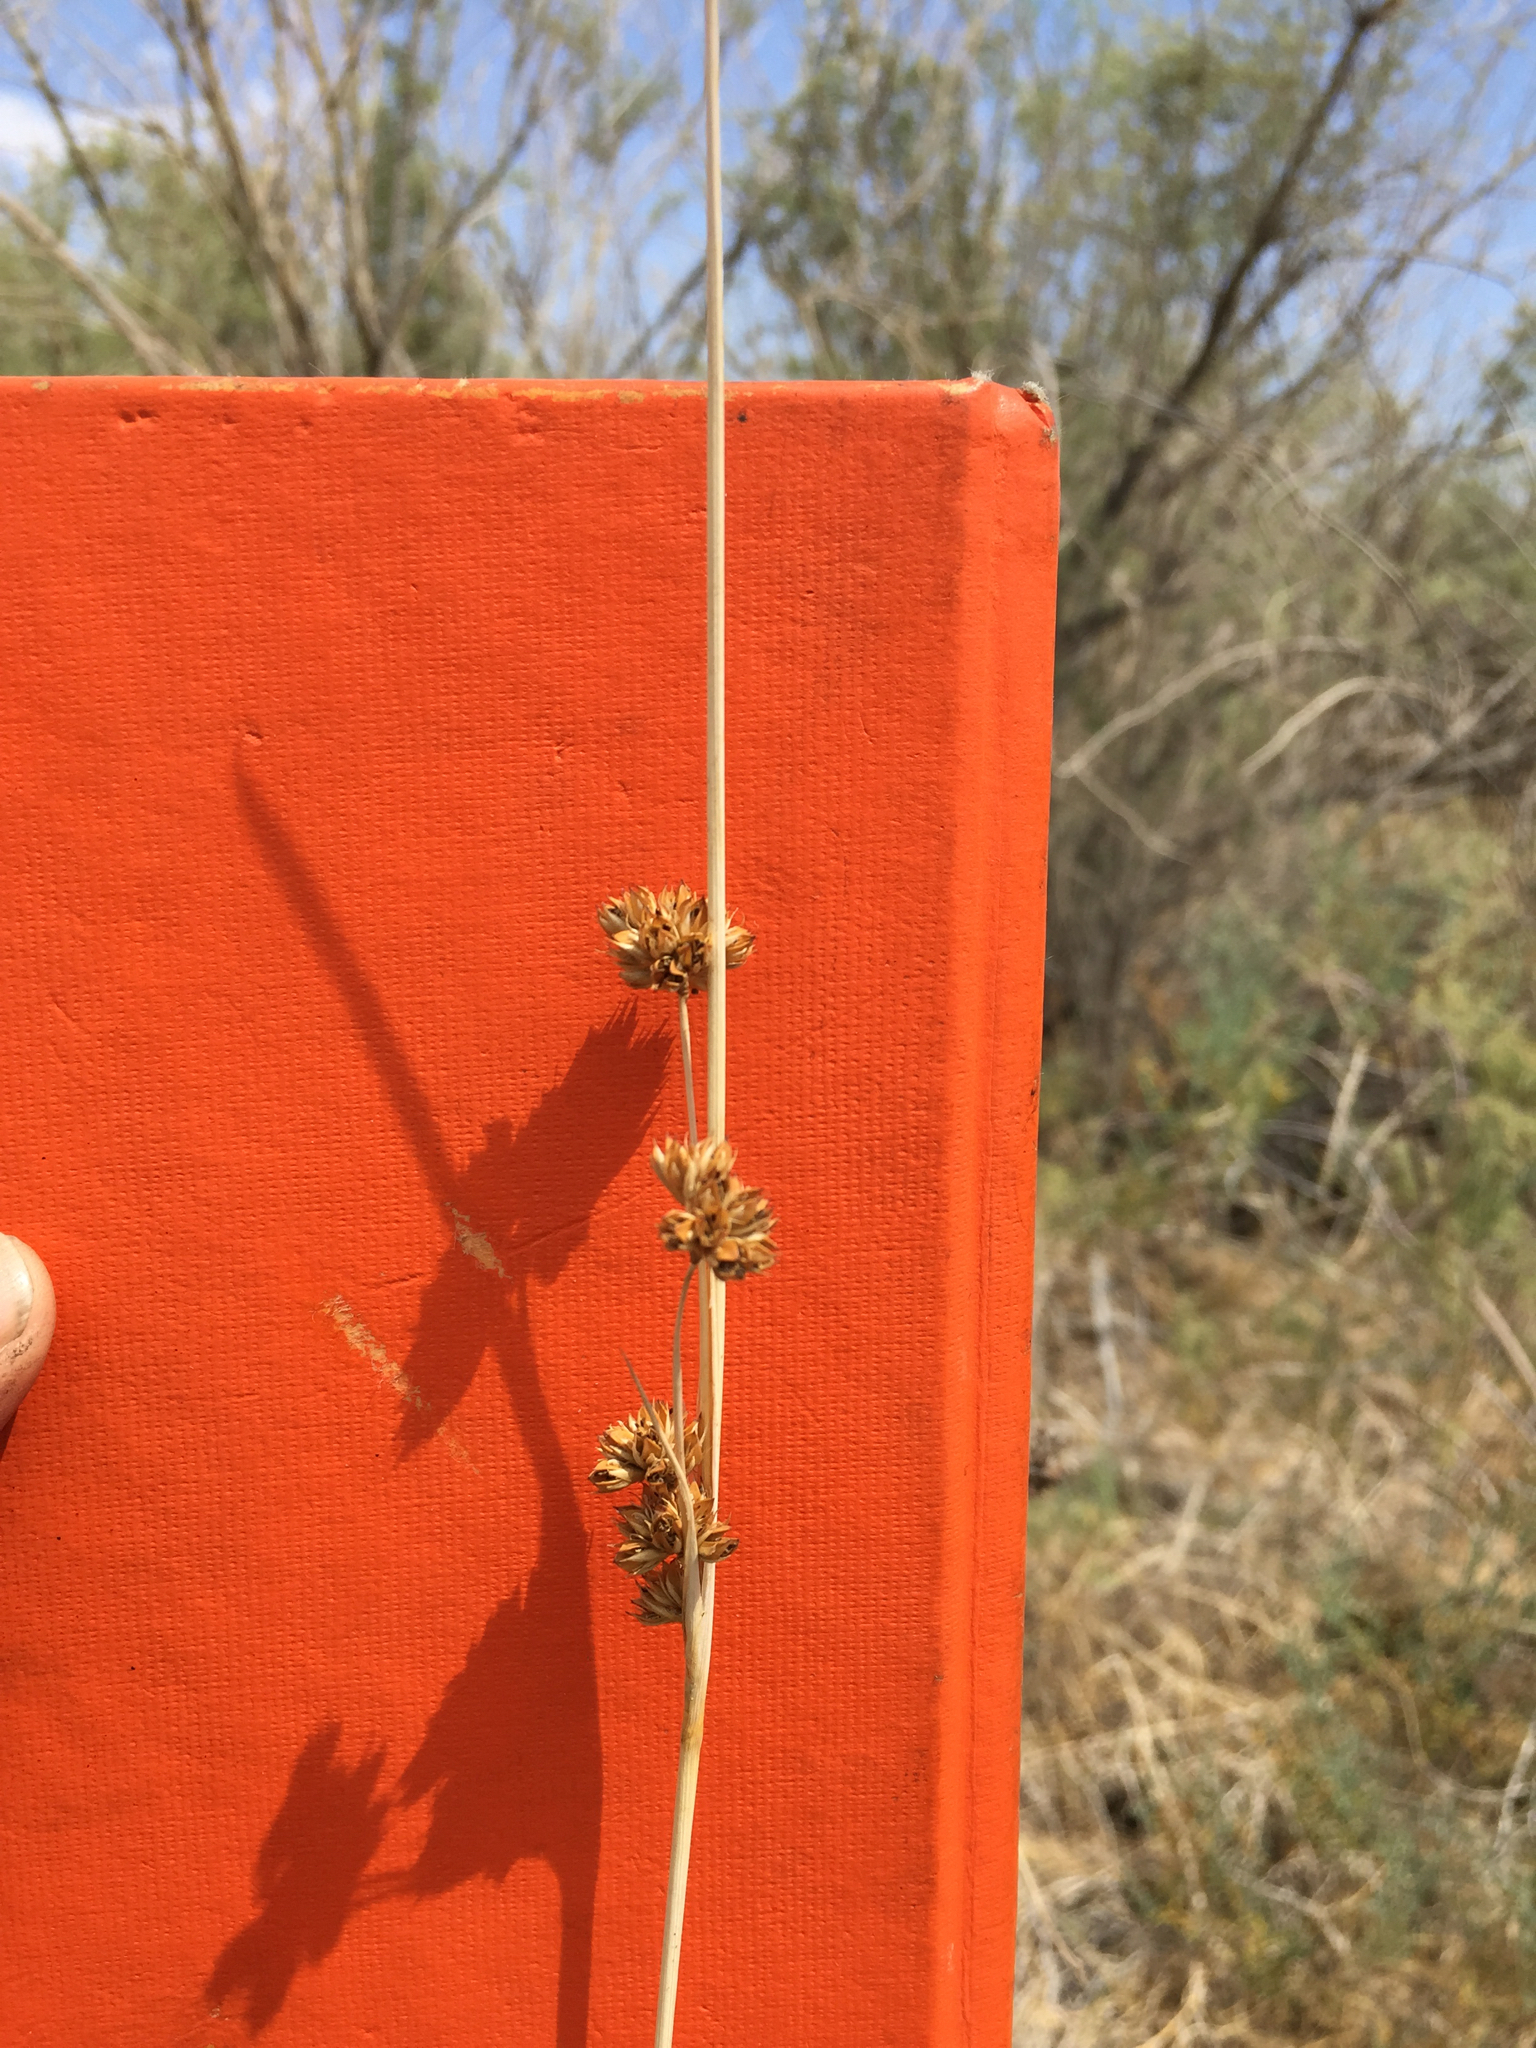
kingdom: Plantae
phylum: Tracheophyta
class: Liliopsida
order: Poales
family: Juncaceae
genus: Juncus
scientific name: Juncus cooperi
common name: Cooper's rush
